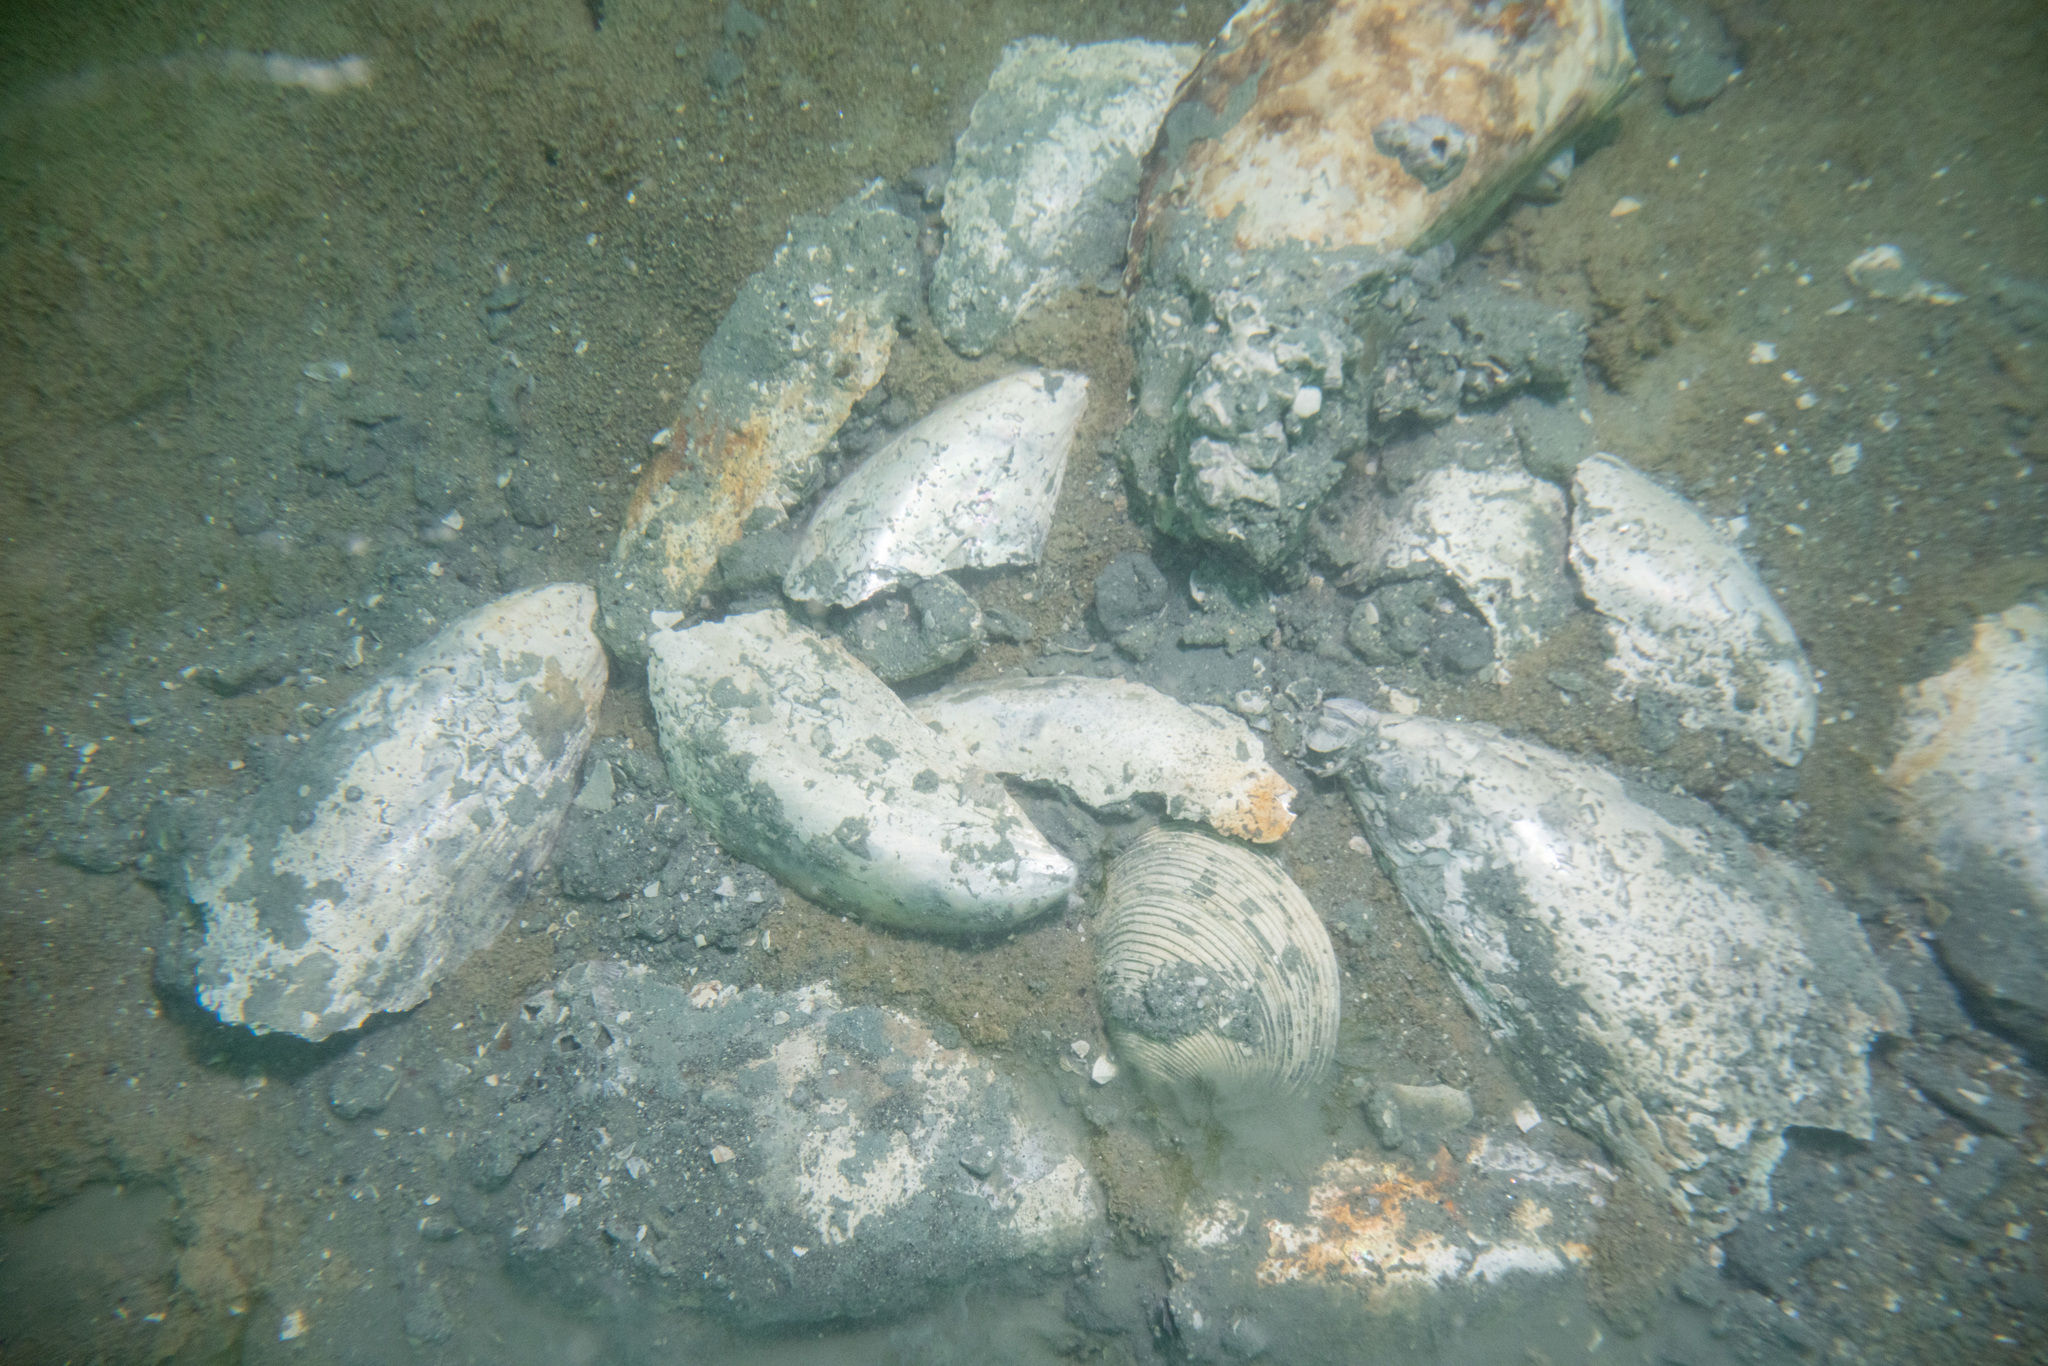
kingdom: Animalia
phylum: Mollusca
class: Bivalvia
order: Venerida
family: Veneridae
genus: Dosina
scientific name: Dosina mactracea
